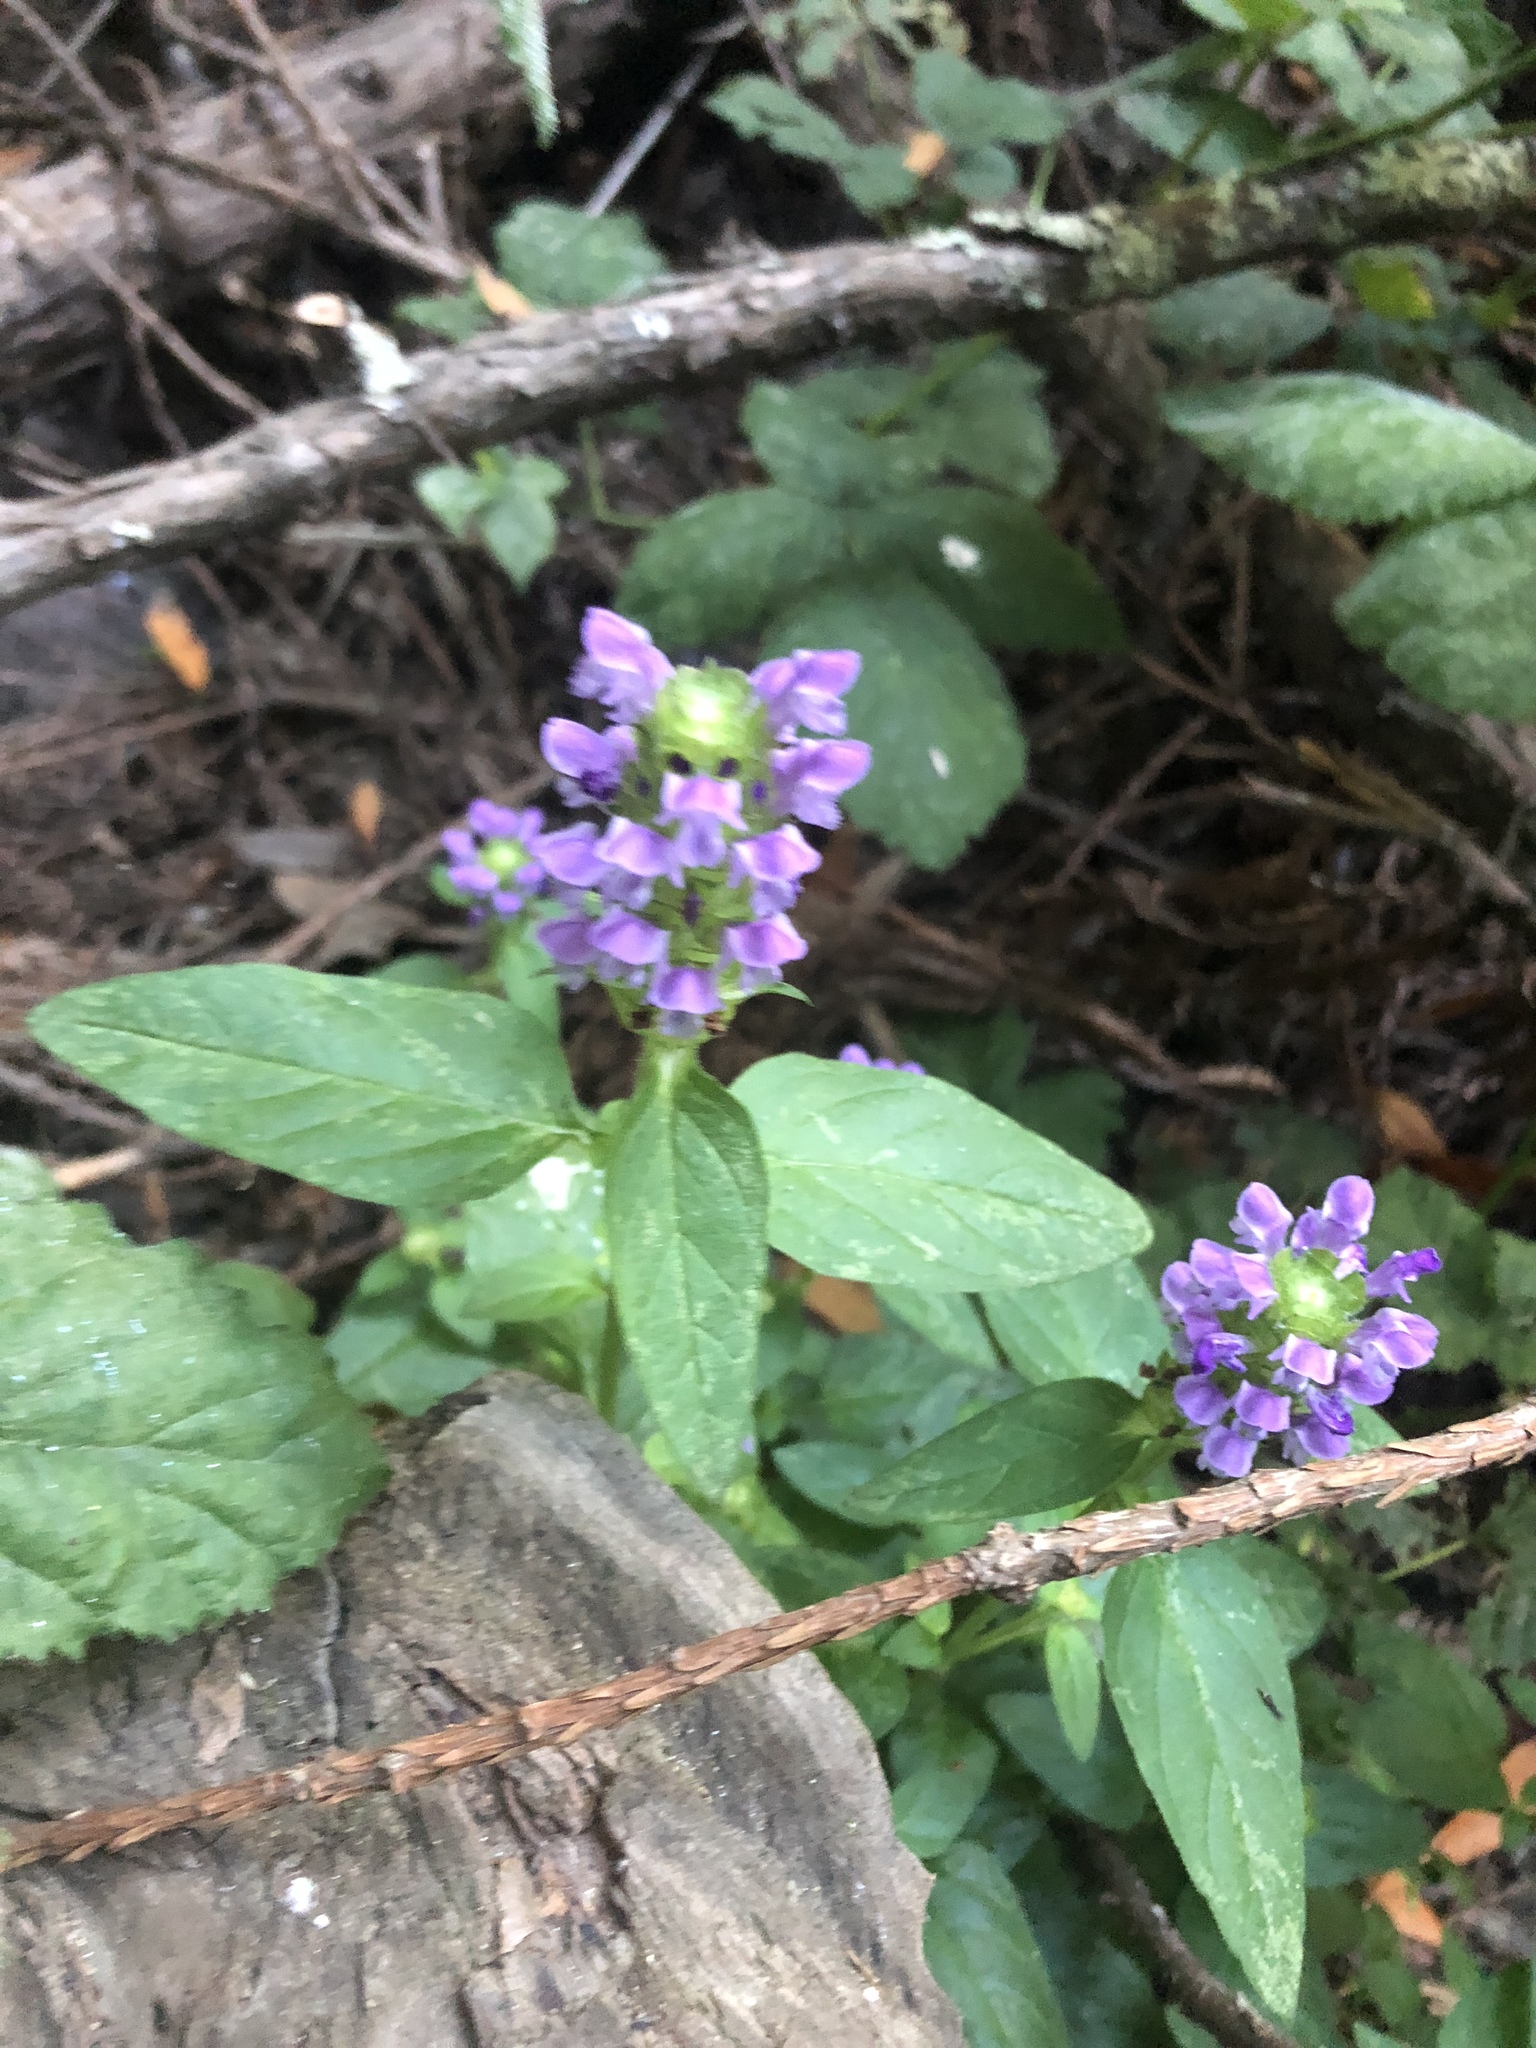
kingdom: Plantae
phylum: Tracheophyta
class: Magnoliopsida
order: Lamiales
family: Lamiaceae
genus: Prunella
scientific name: Prunella vulgaris
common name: Heal-all
